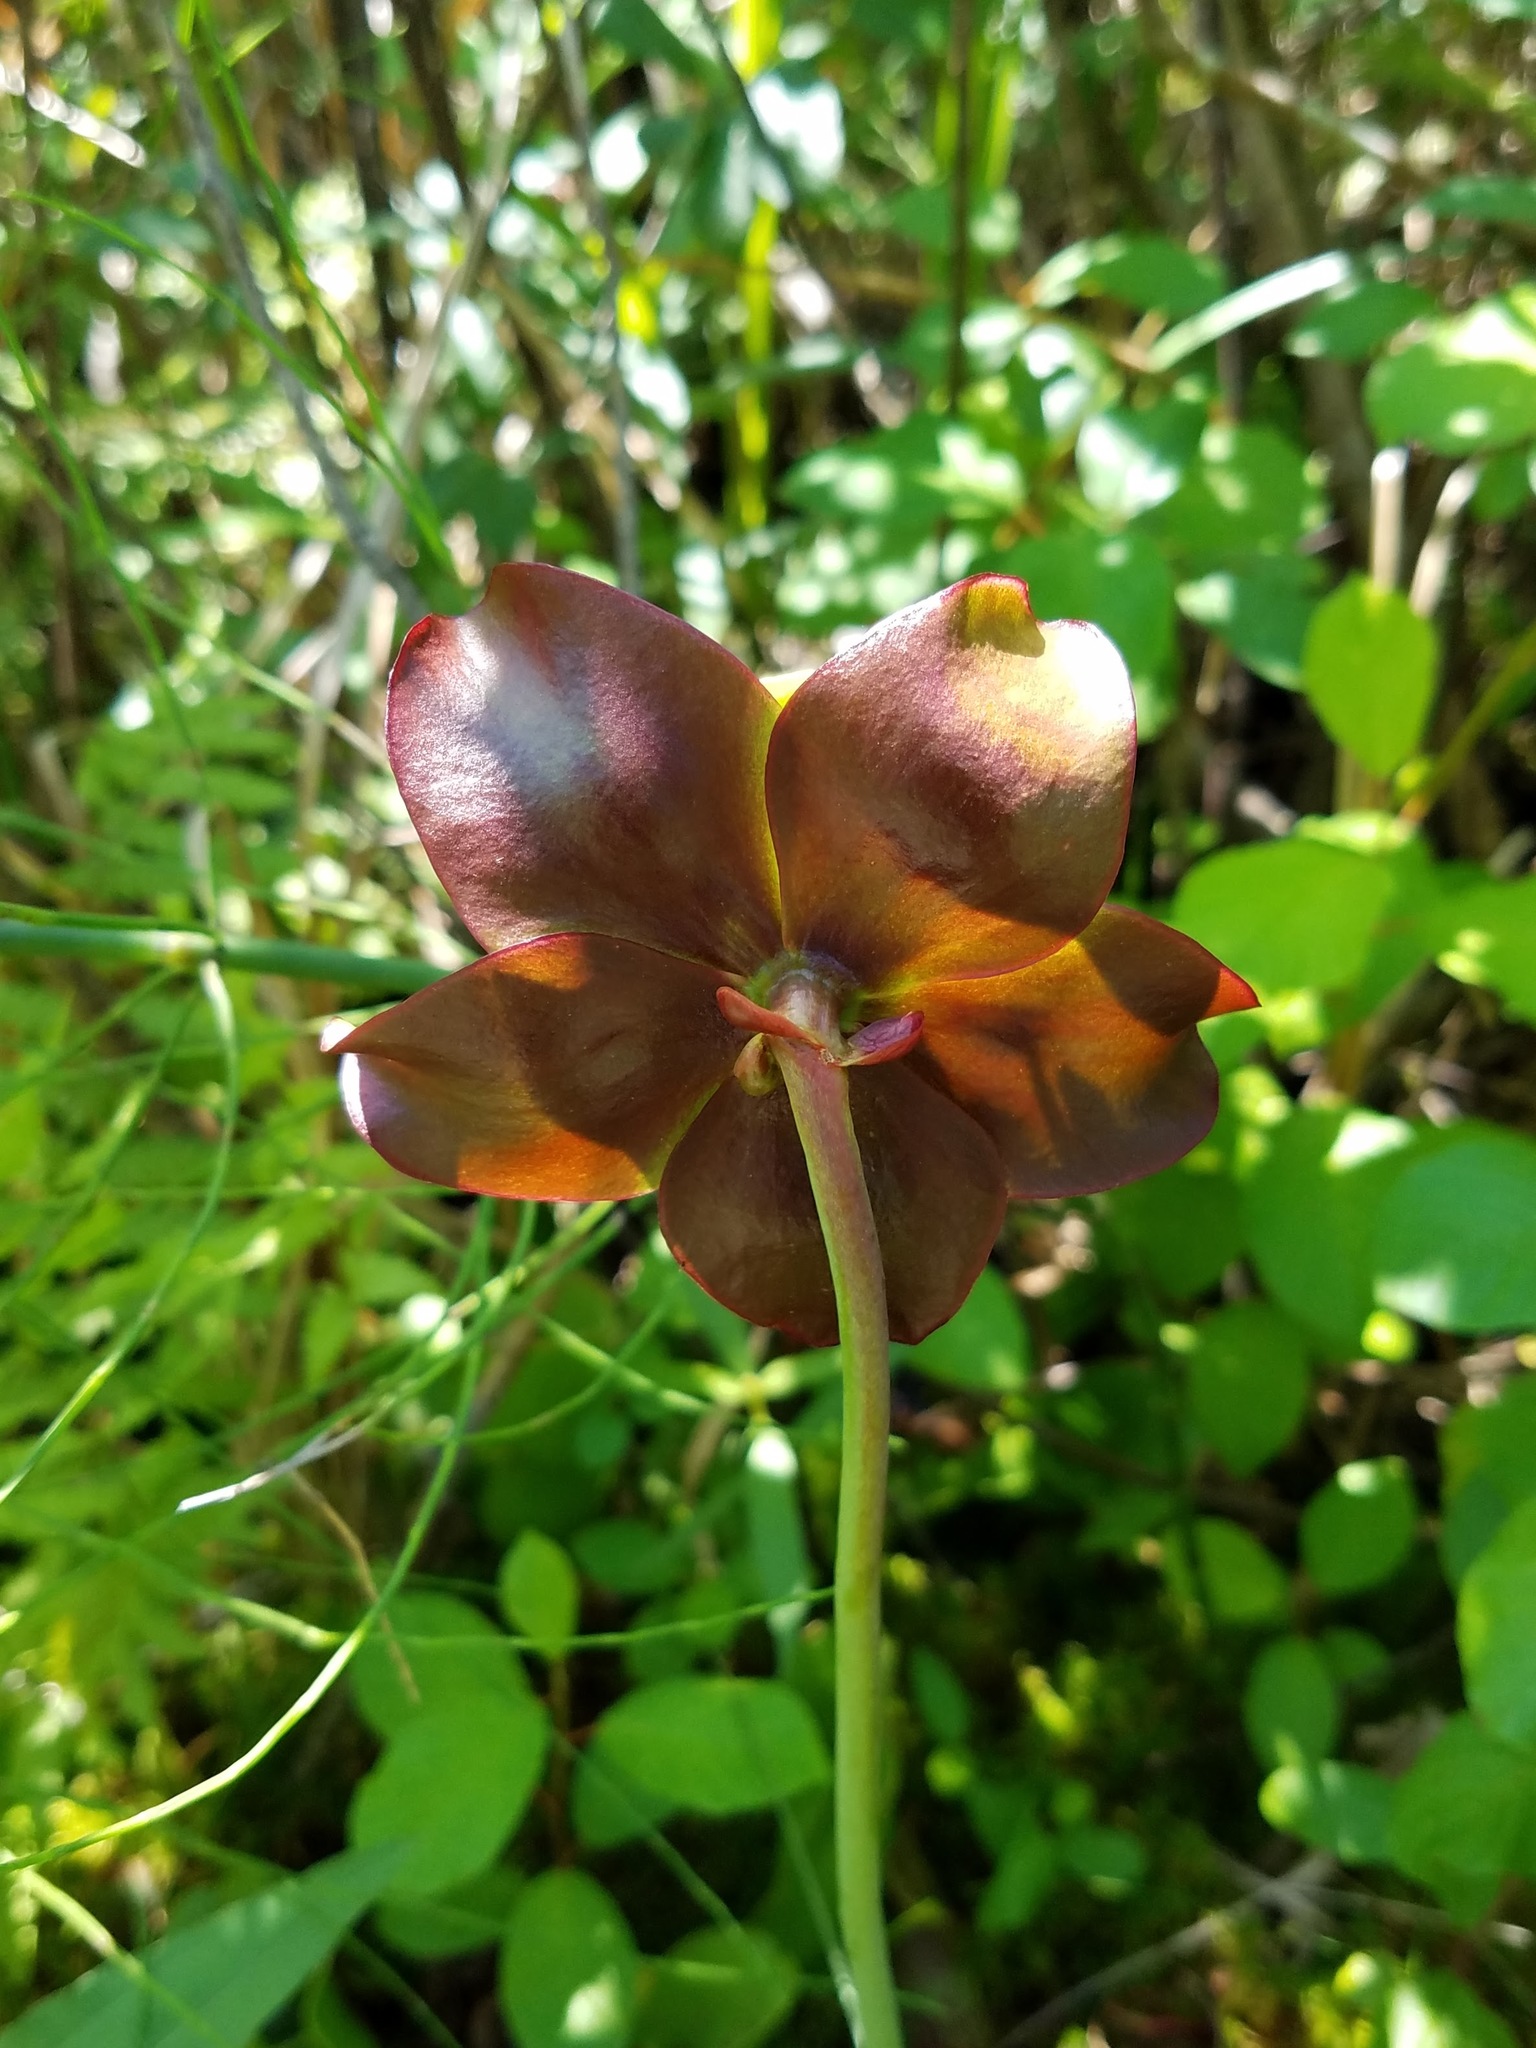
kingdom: Plantae
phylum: Tracheophyta
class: Magnoliopsida
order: Ericales
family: Sarraceniaceae
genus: Sarracenia
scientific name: Sarracenia purpurea
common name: Pitcherplant
